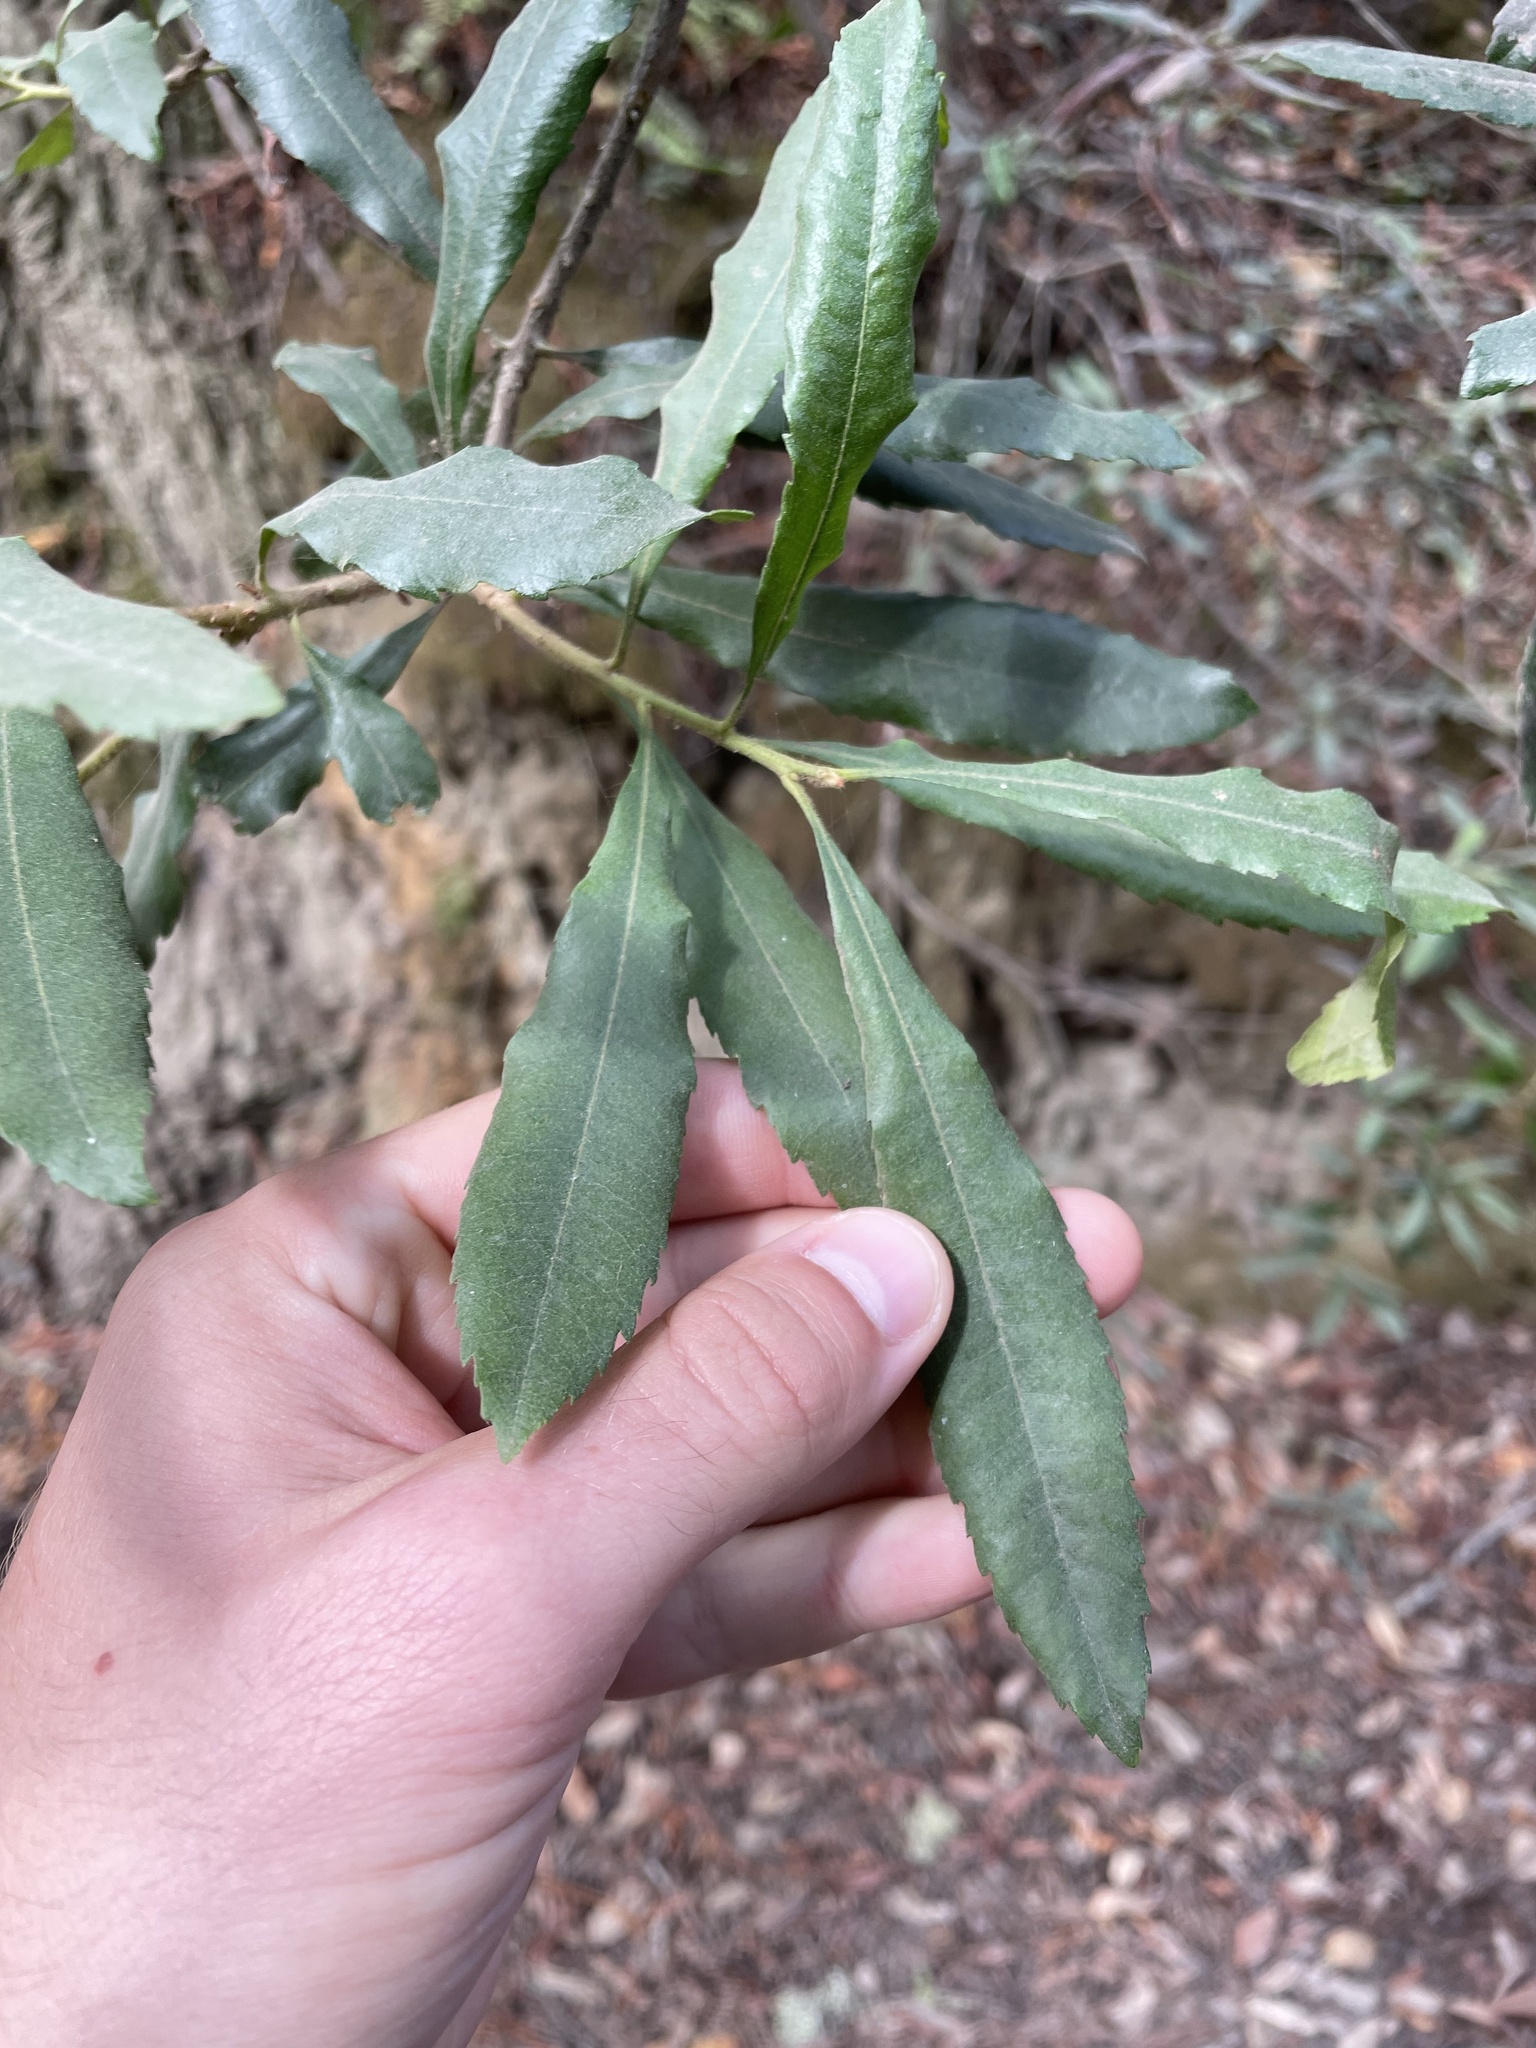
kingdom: Plantae
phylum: Tracheophyta
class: Magnoliopsida
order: Fagales
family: Myricaceae
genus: Morella
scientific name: Morella californica
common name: California wax-myrtle
